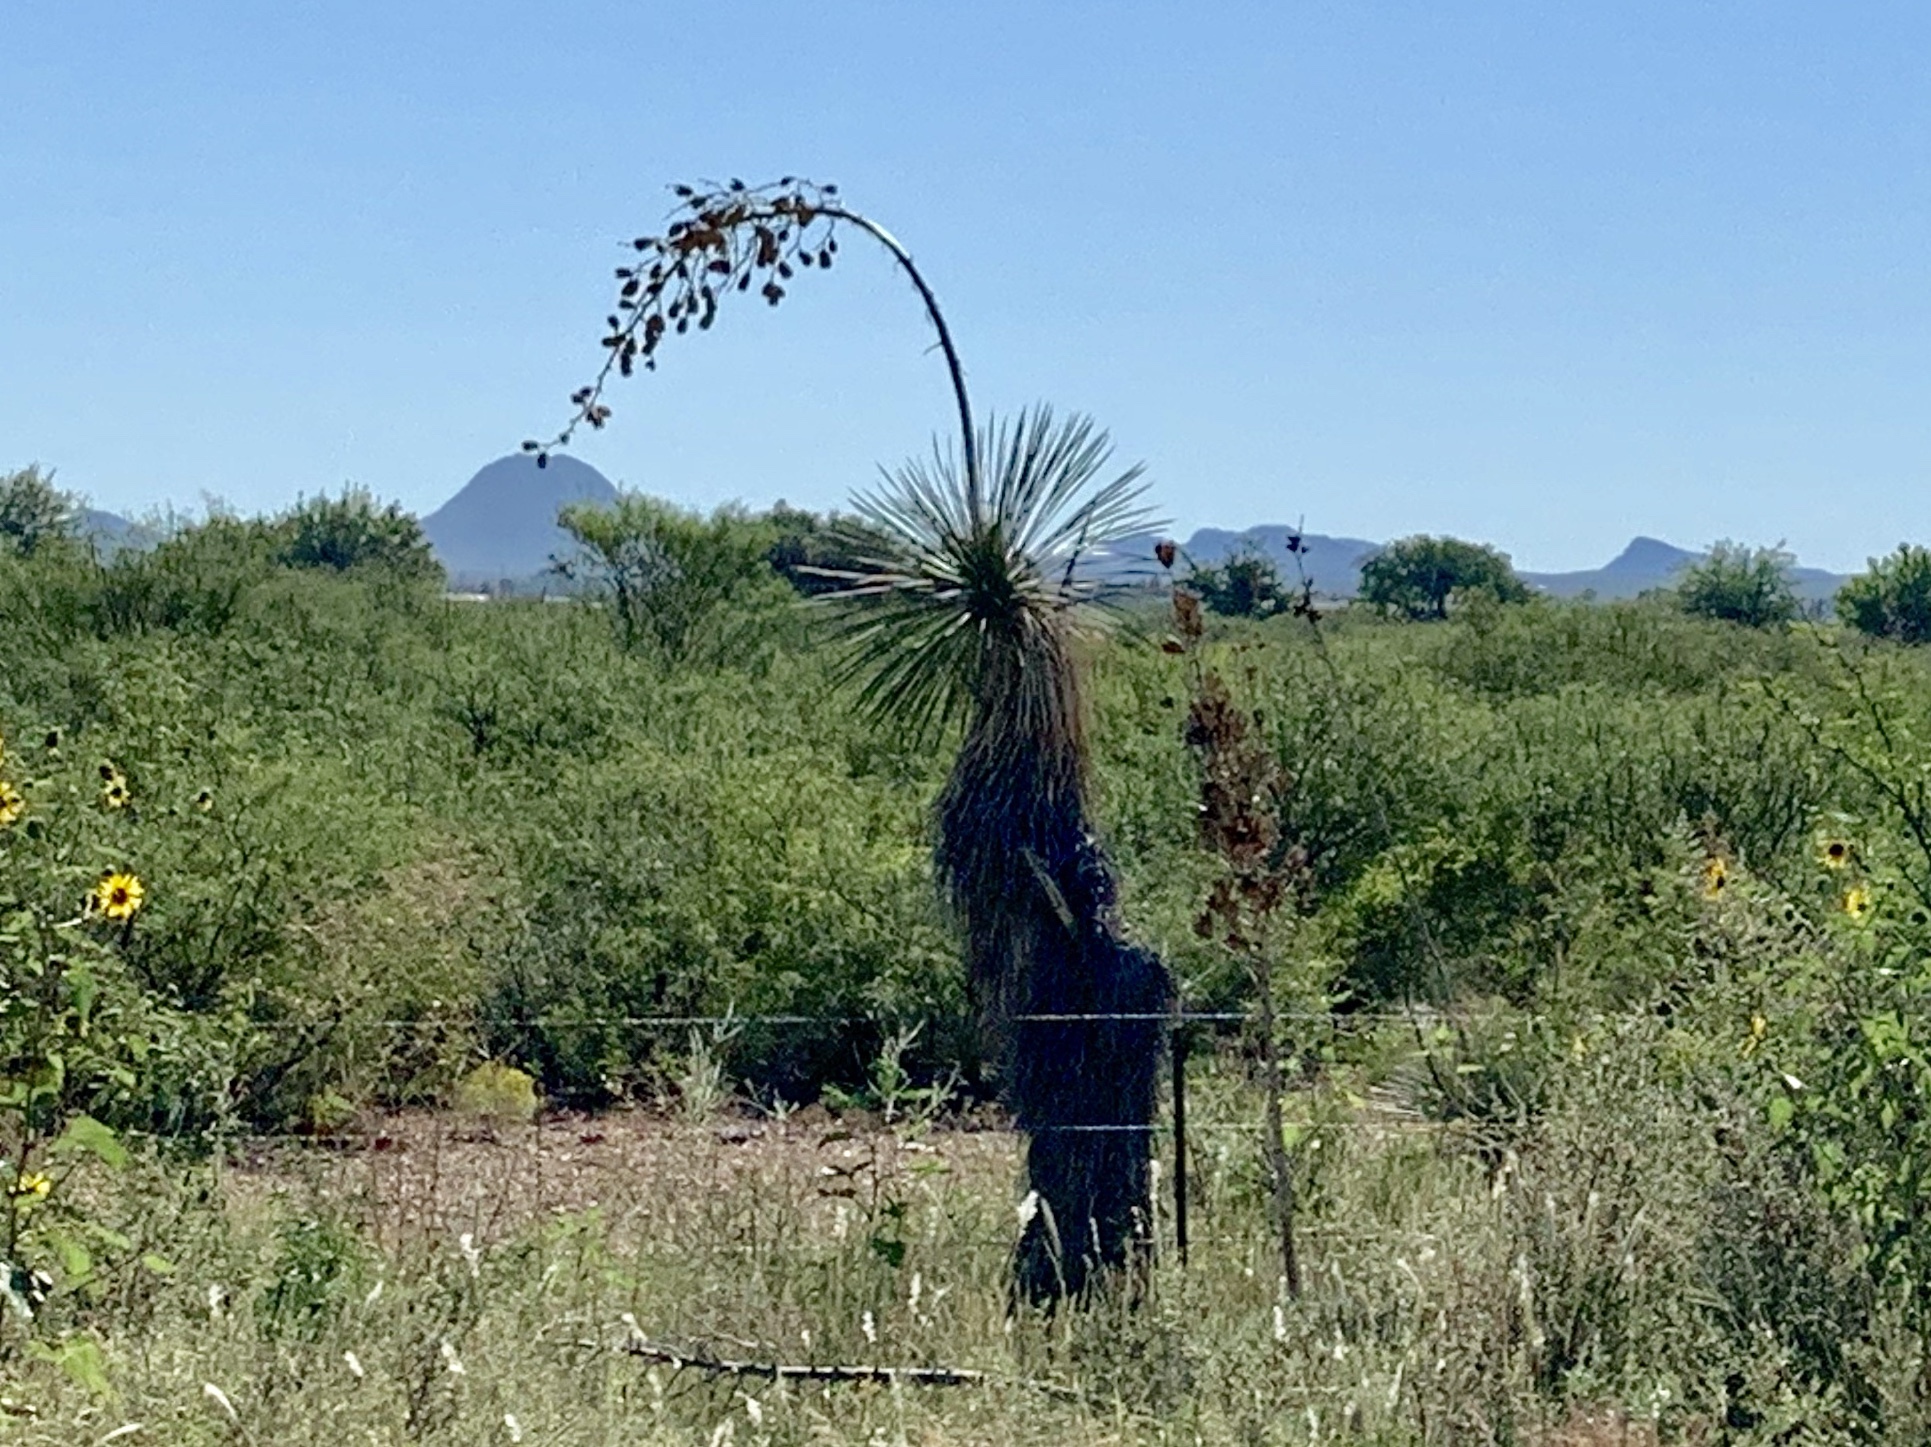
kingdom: Plantae
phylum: Tracheophyta
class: Liliopsida
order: Asparagales
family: Asparagaceae
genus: Yucca
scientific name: Yucca elata
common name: Palmella
